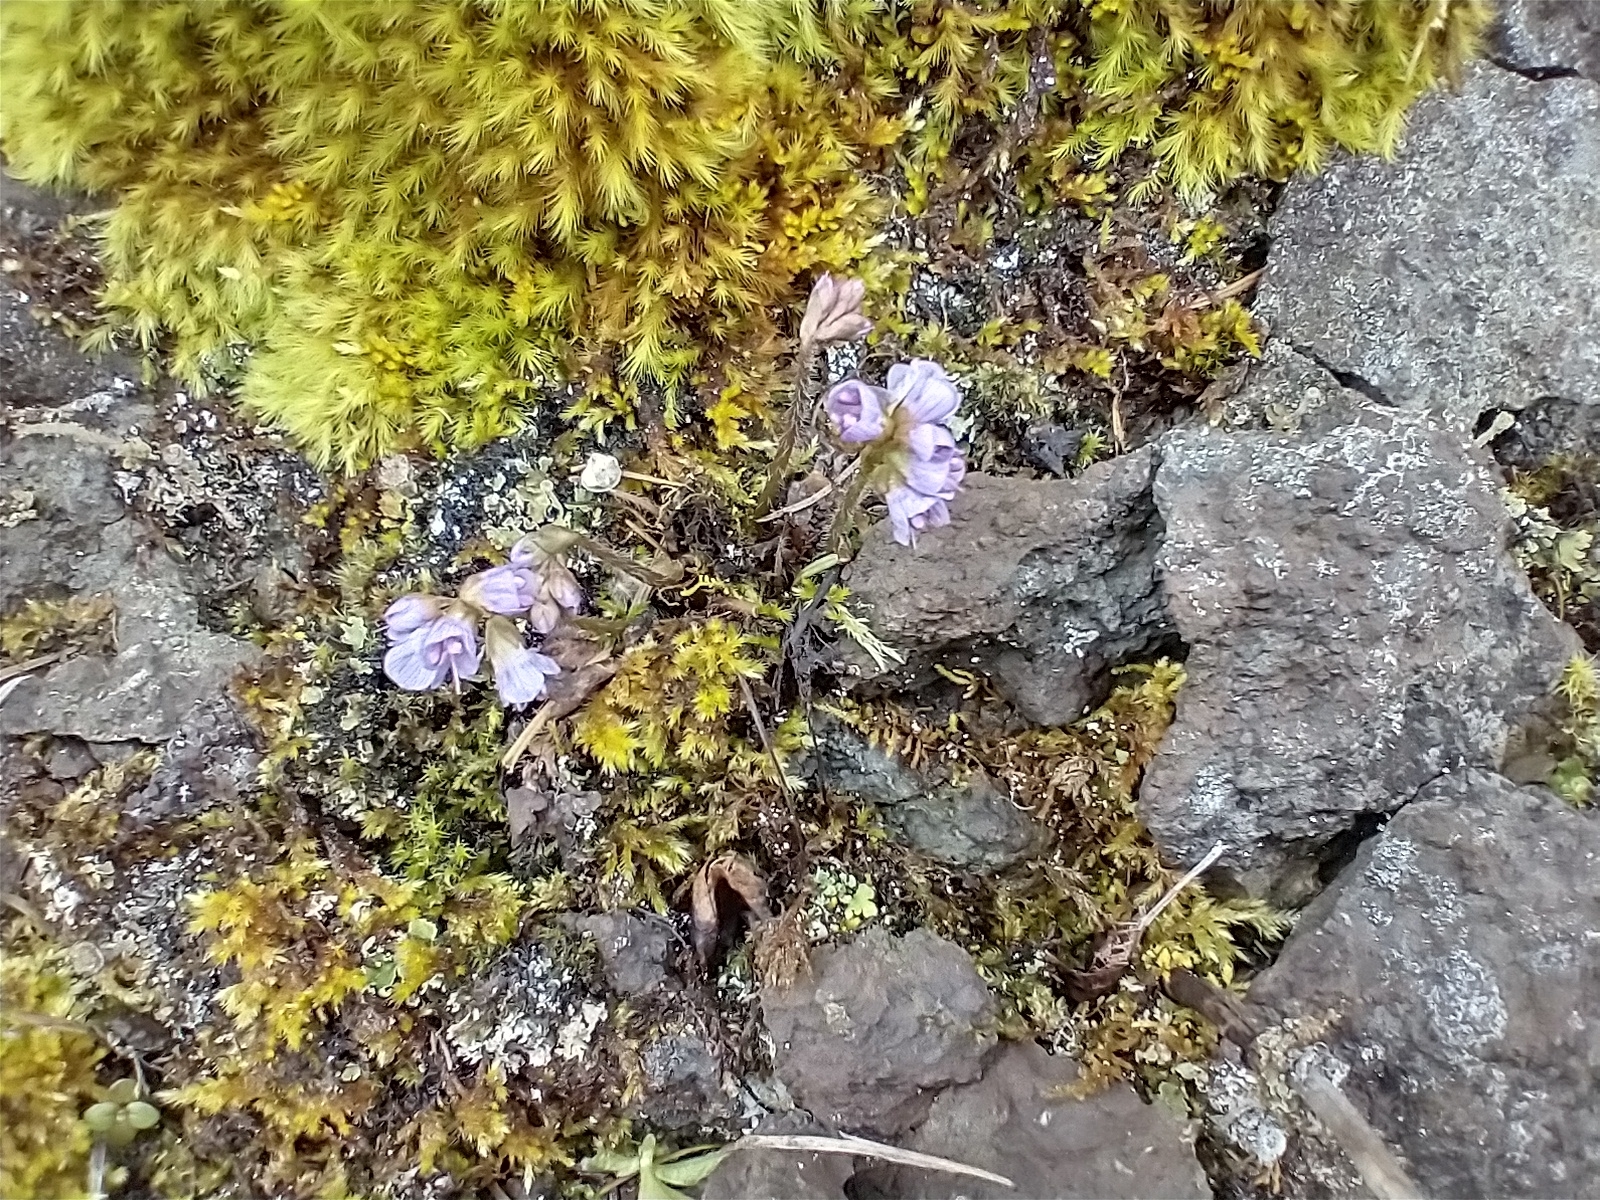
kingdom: Plantae
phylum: Tracheophyta
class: Magnoliopsida
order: Lamiales
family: Plantaginaceae
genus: Synthyris
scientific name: Synthyris reniformis
